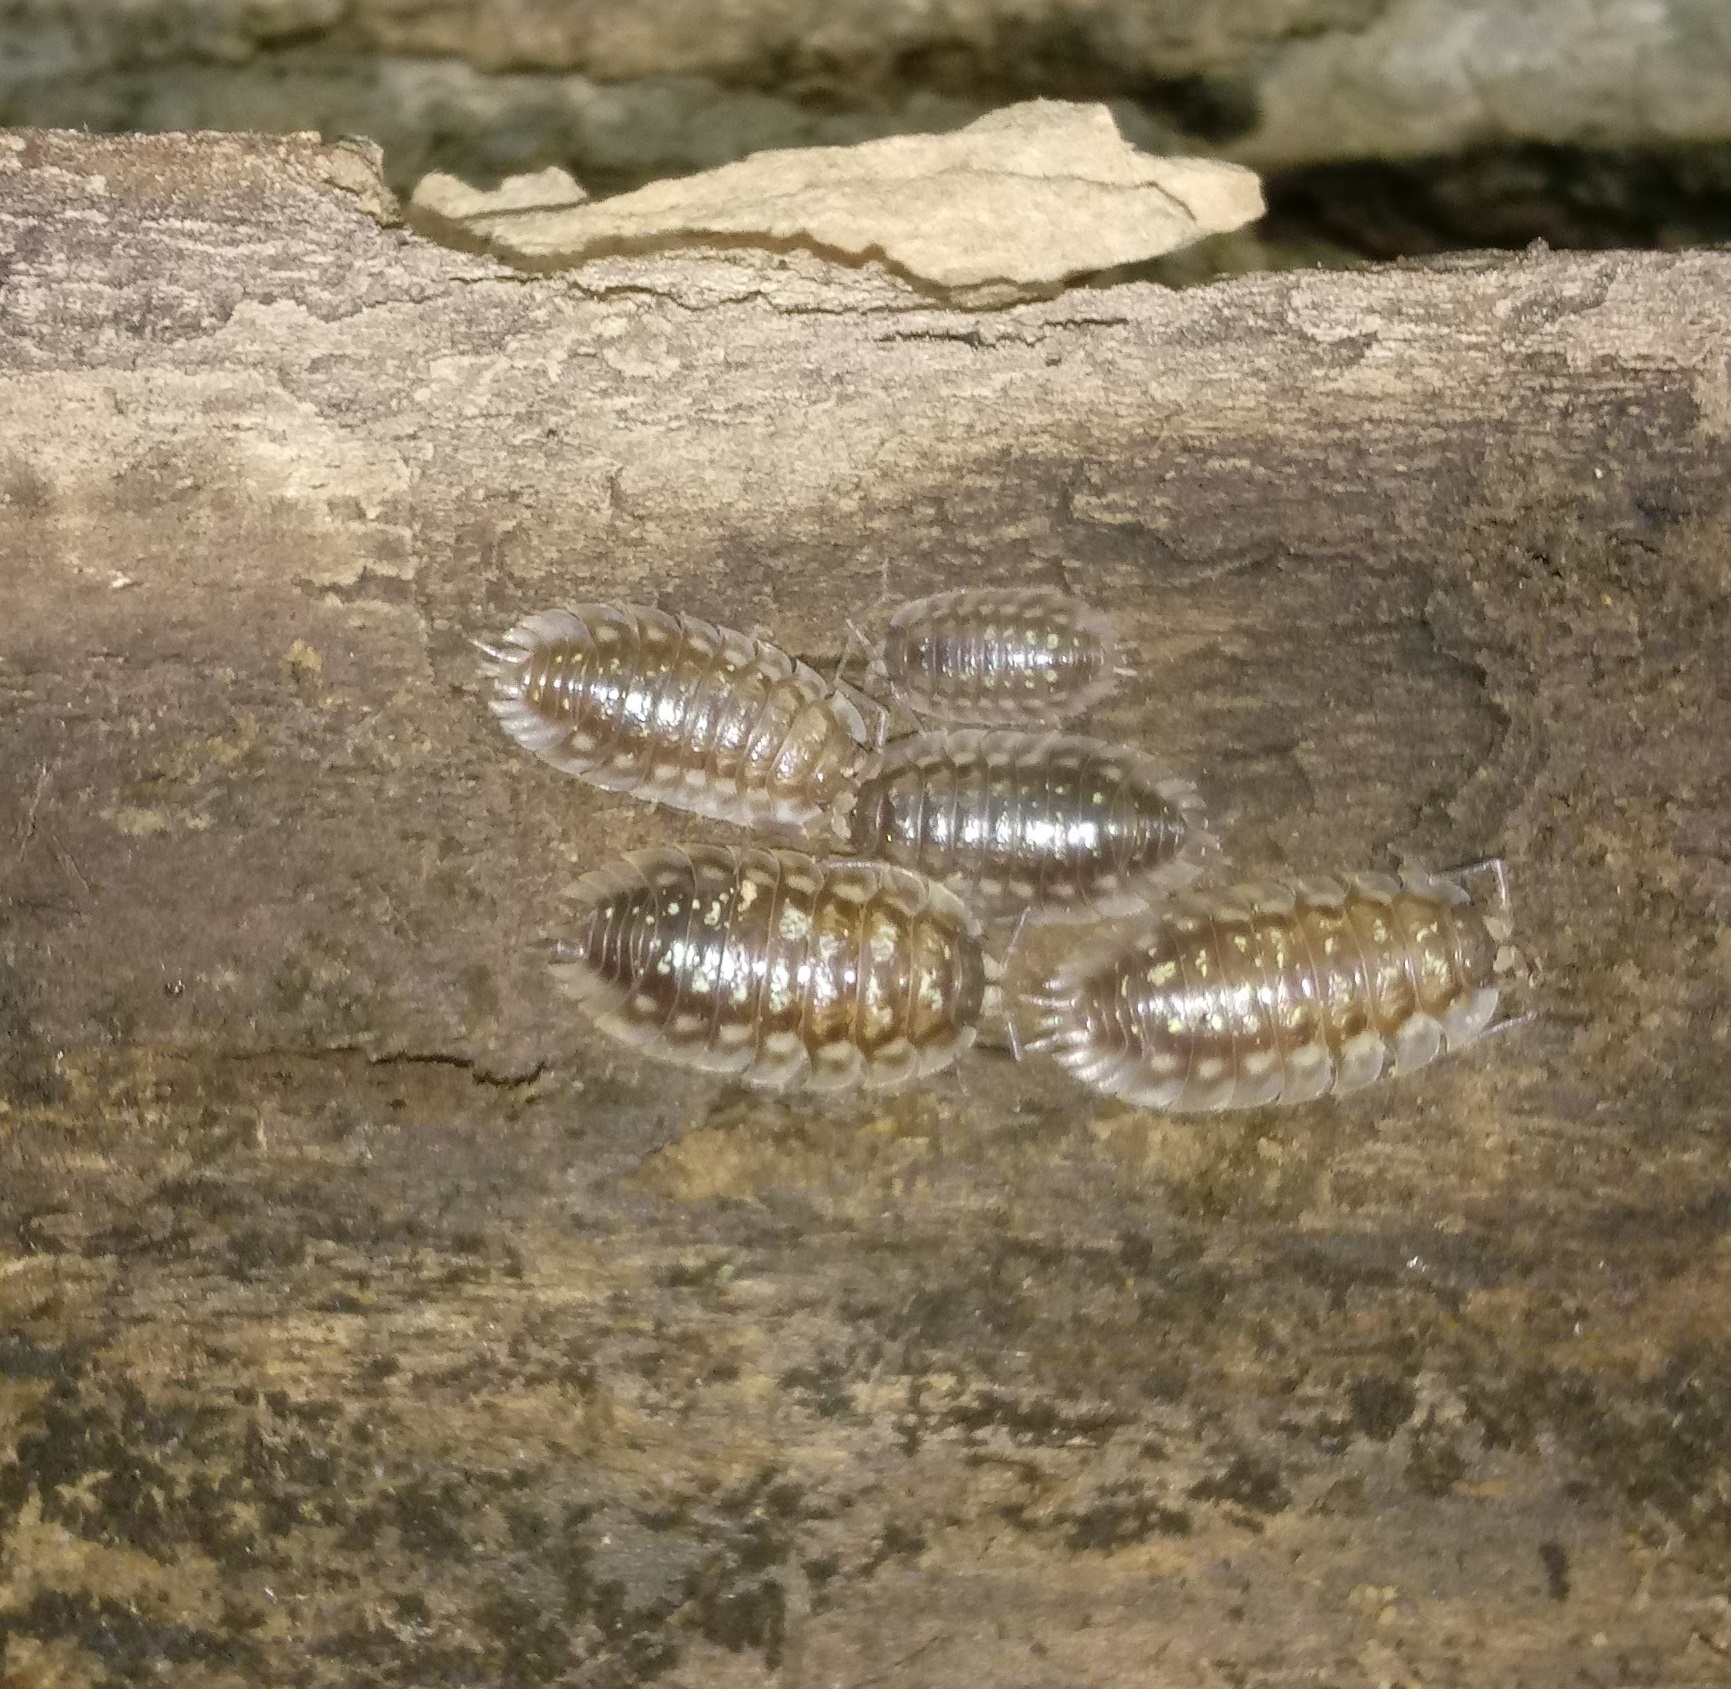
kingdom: Animalia
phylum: Arthropoda
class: Malacostraca
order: Isopoda
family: Oniscidae
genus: Oniscus
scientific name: Oniscus asellus
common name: Common shiny woodlouse
